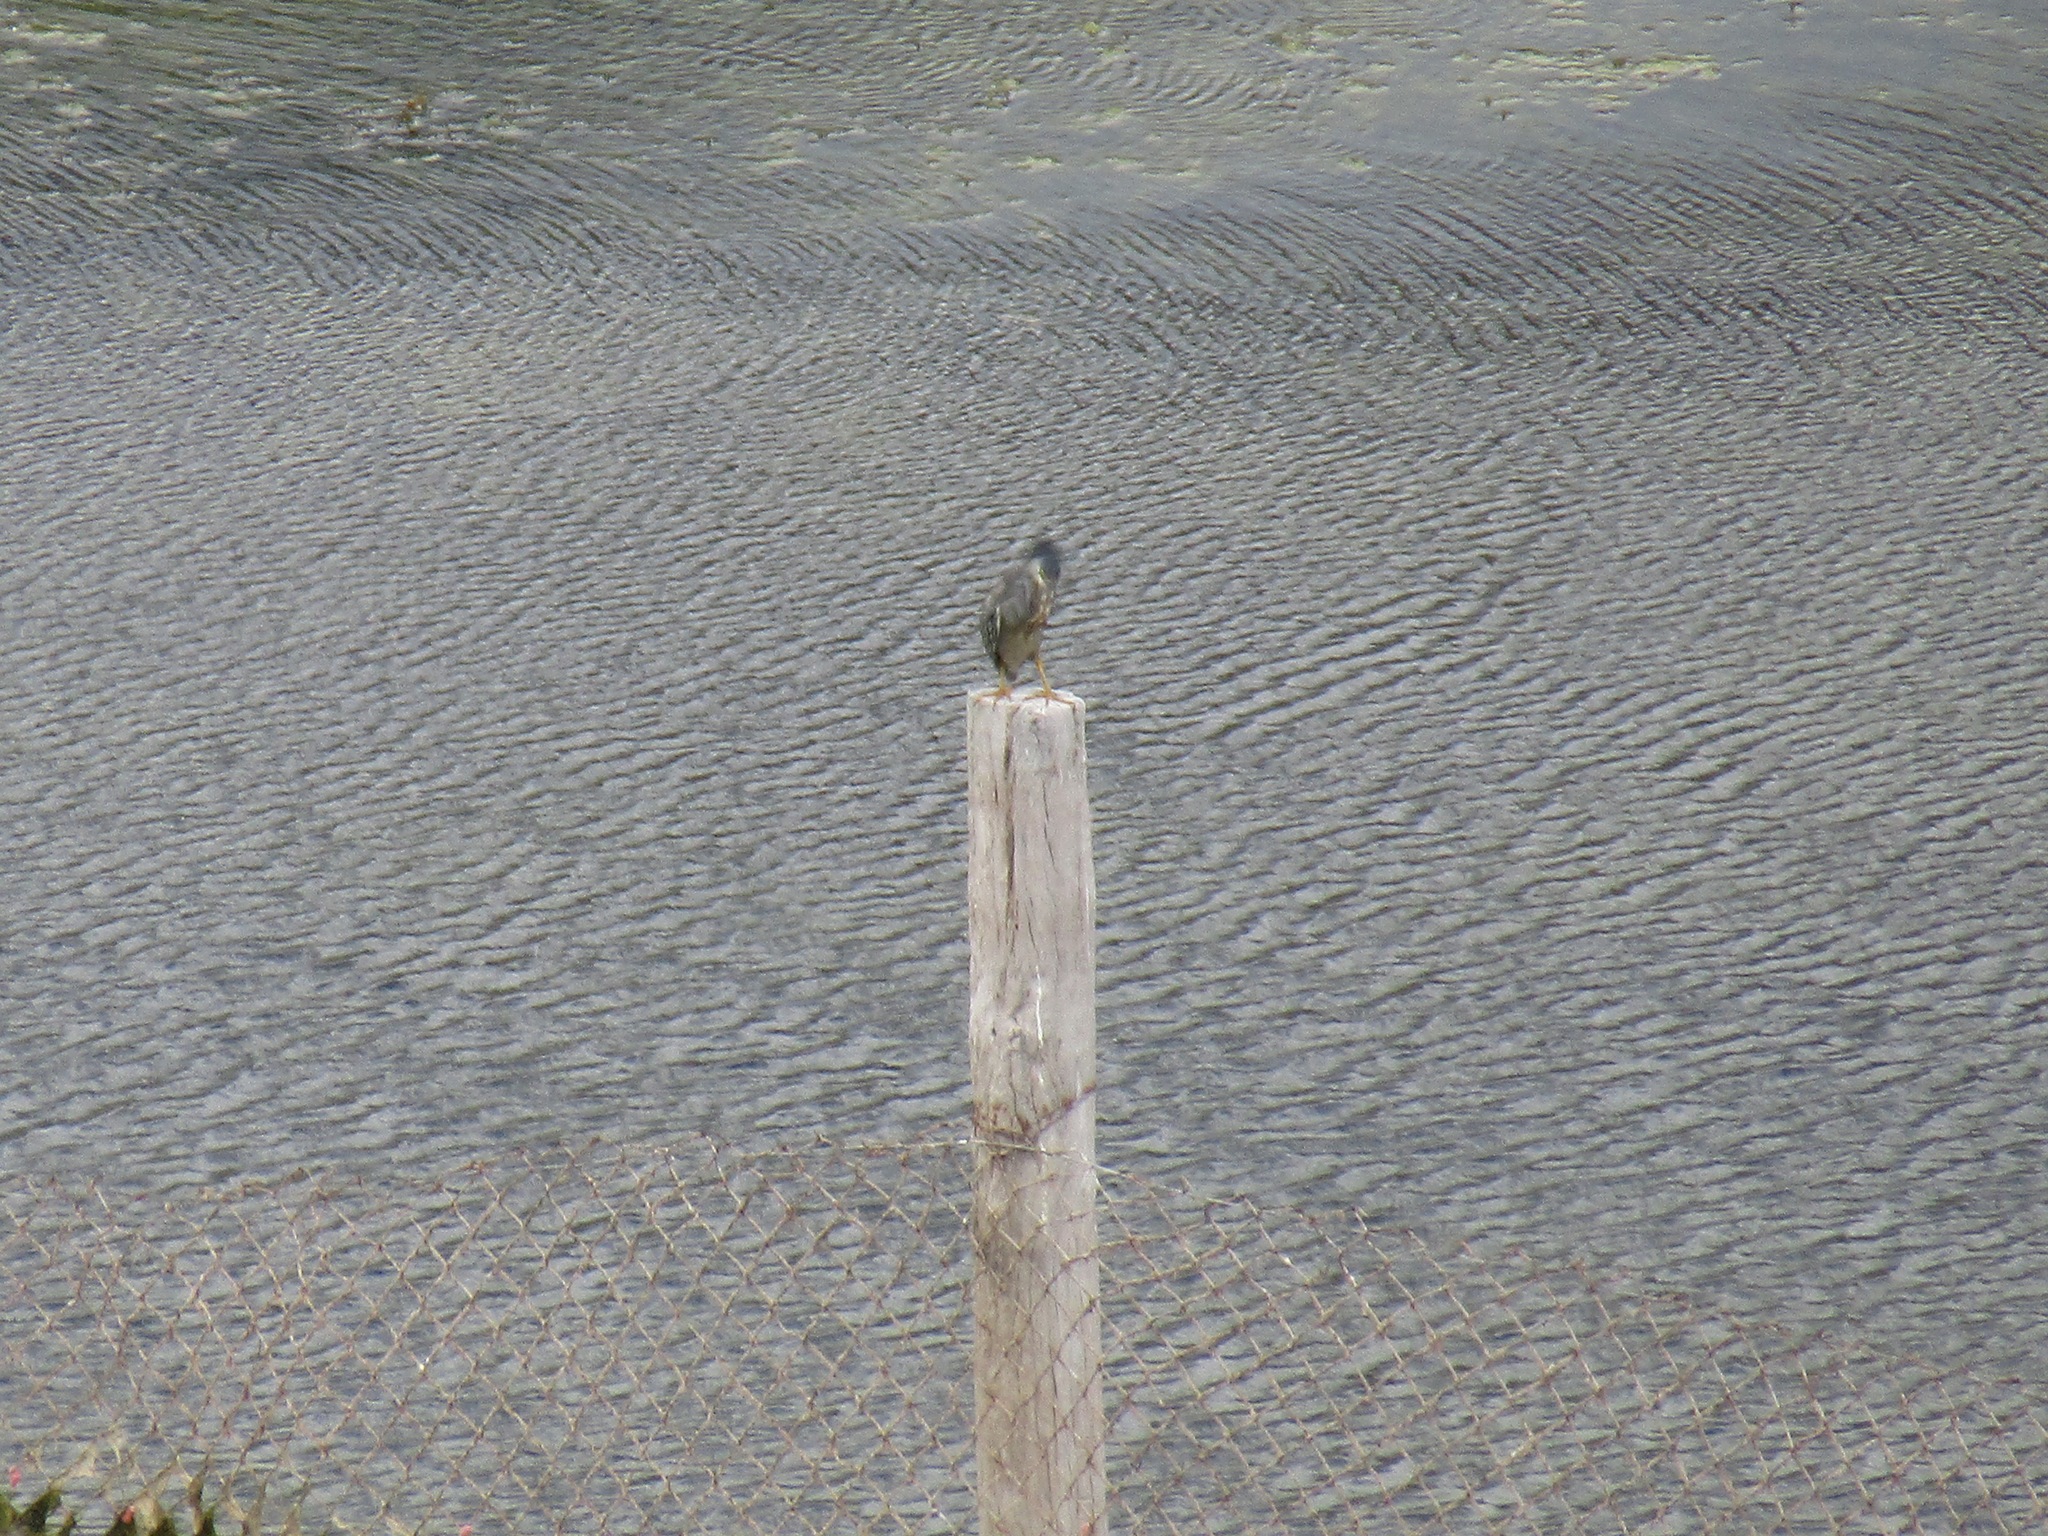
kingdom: Animalia
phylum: Chordata
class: Aves
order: Pelecaniformes
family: Ardeidae
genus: Butorides
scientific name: Butorides striata
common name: Striated heron
